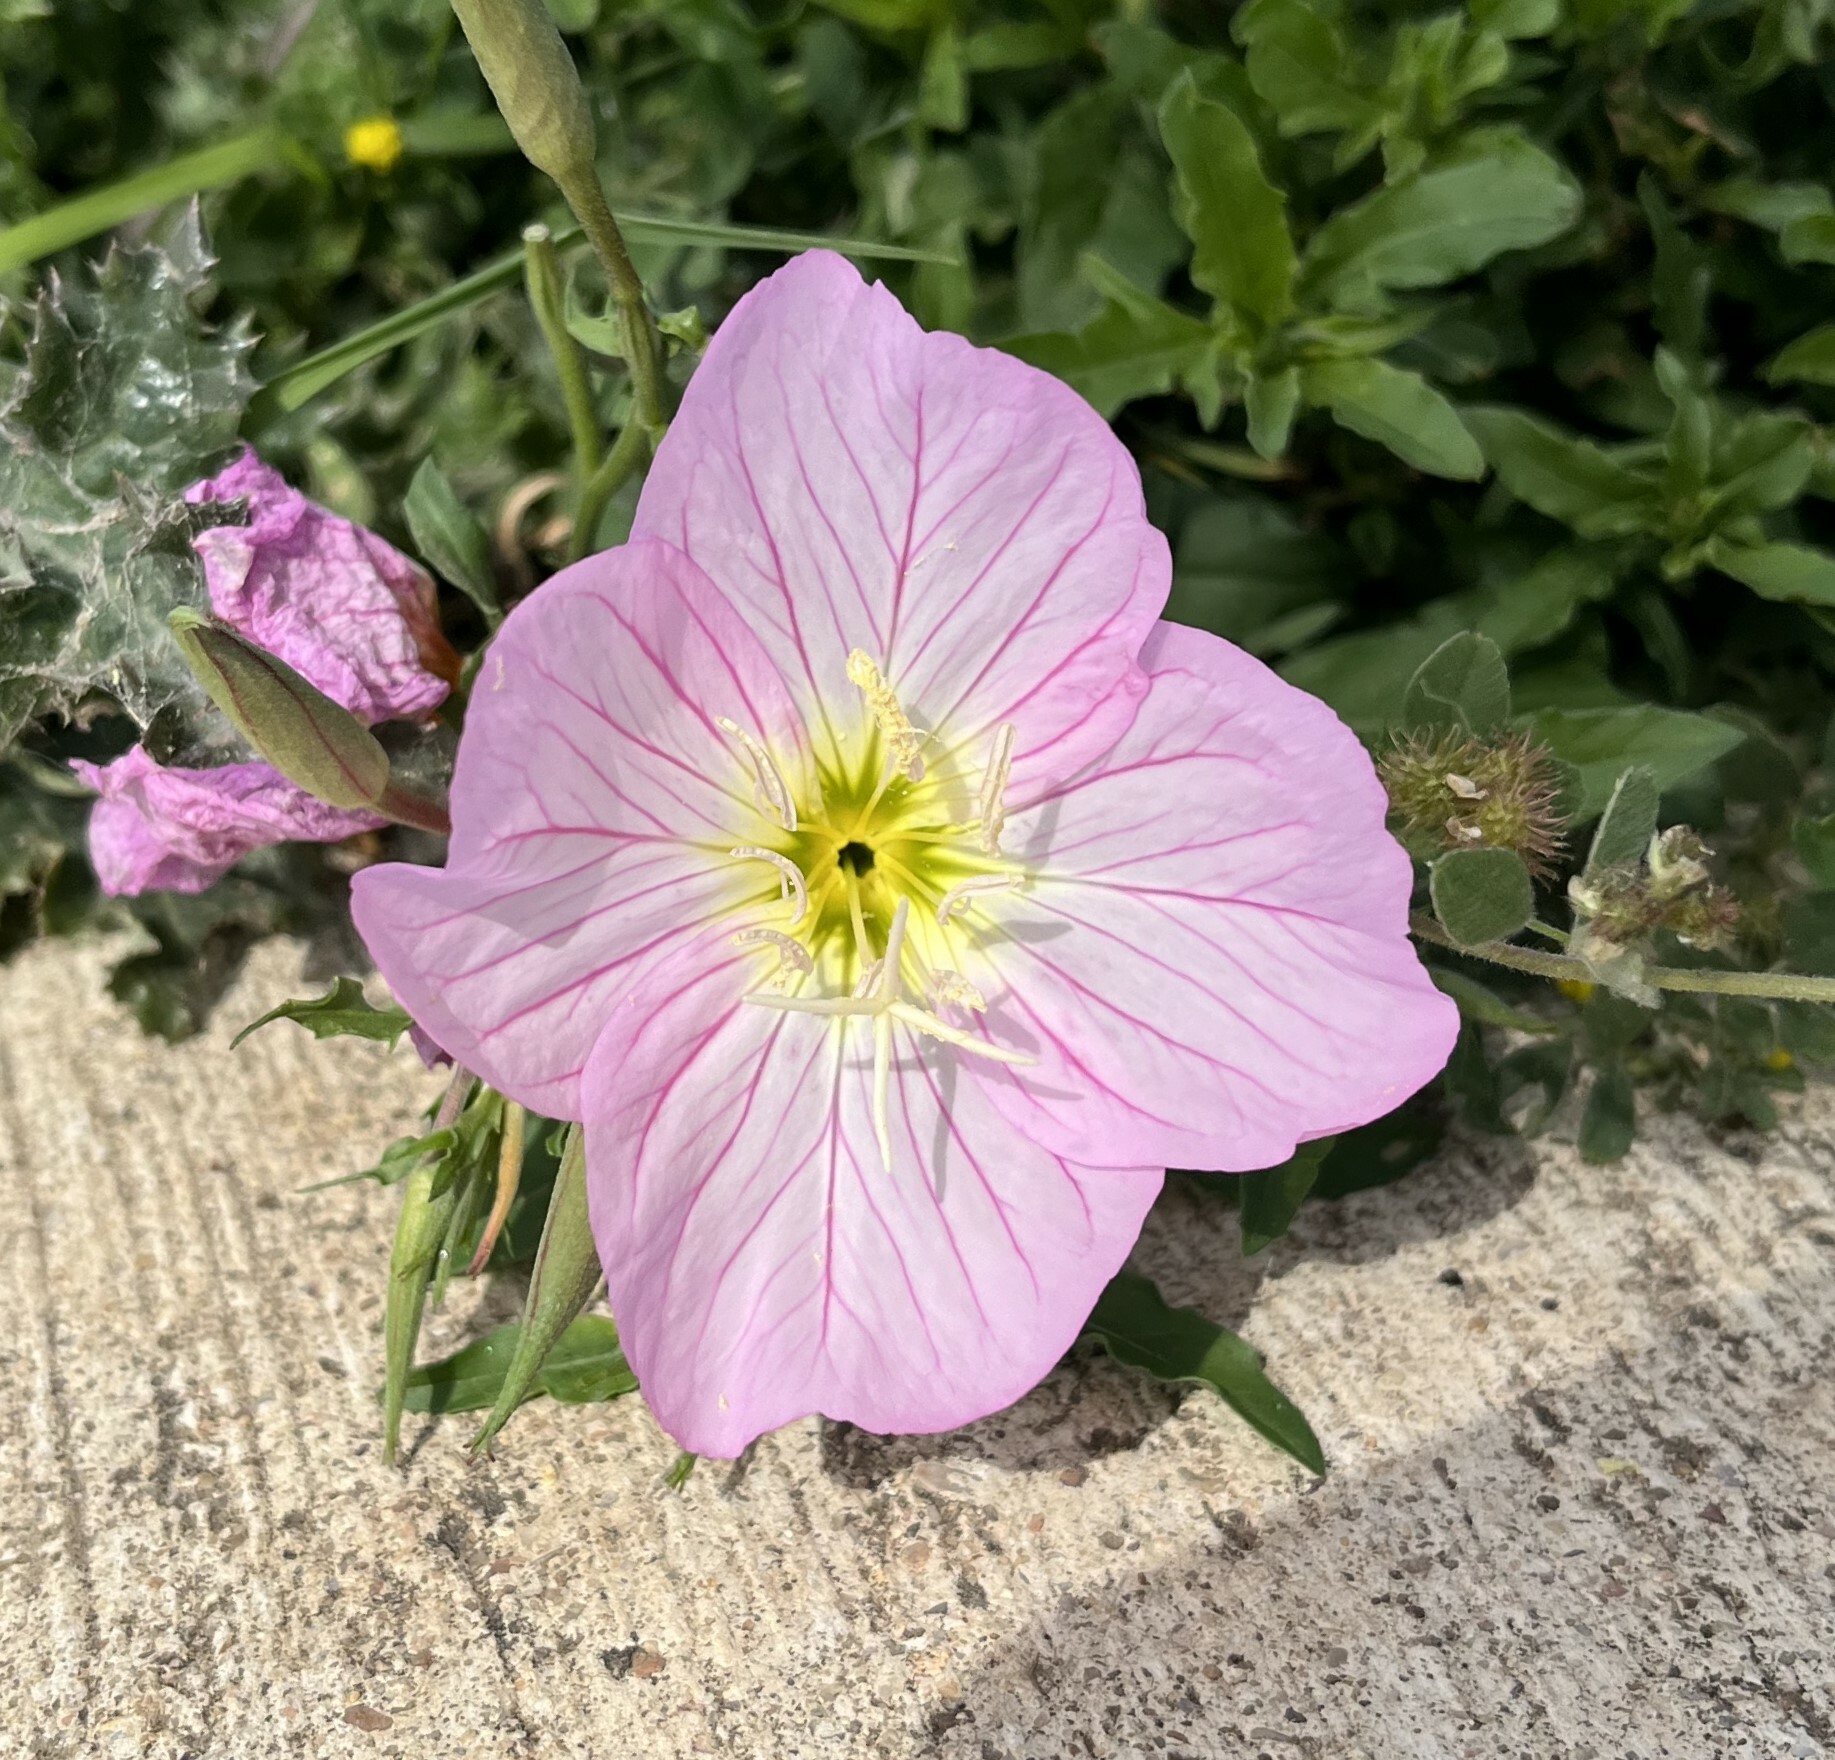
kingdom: Plantae
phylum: Tracheophyta
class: Magnoliopsida
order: Myrtales
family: Onagraceae
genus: Oenothera
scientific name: Oenothera speciosa
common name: White evening-primrose
